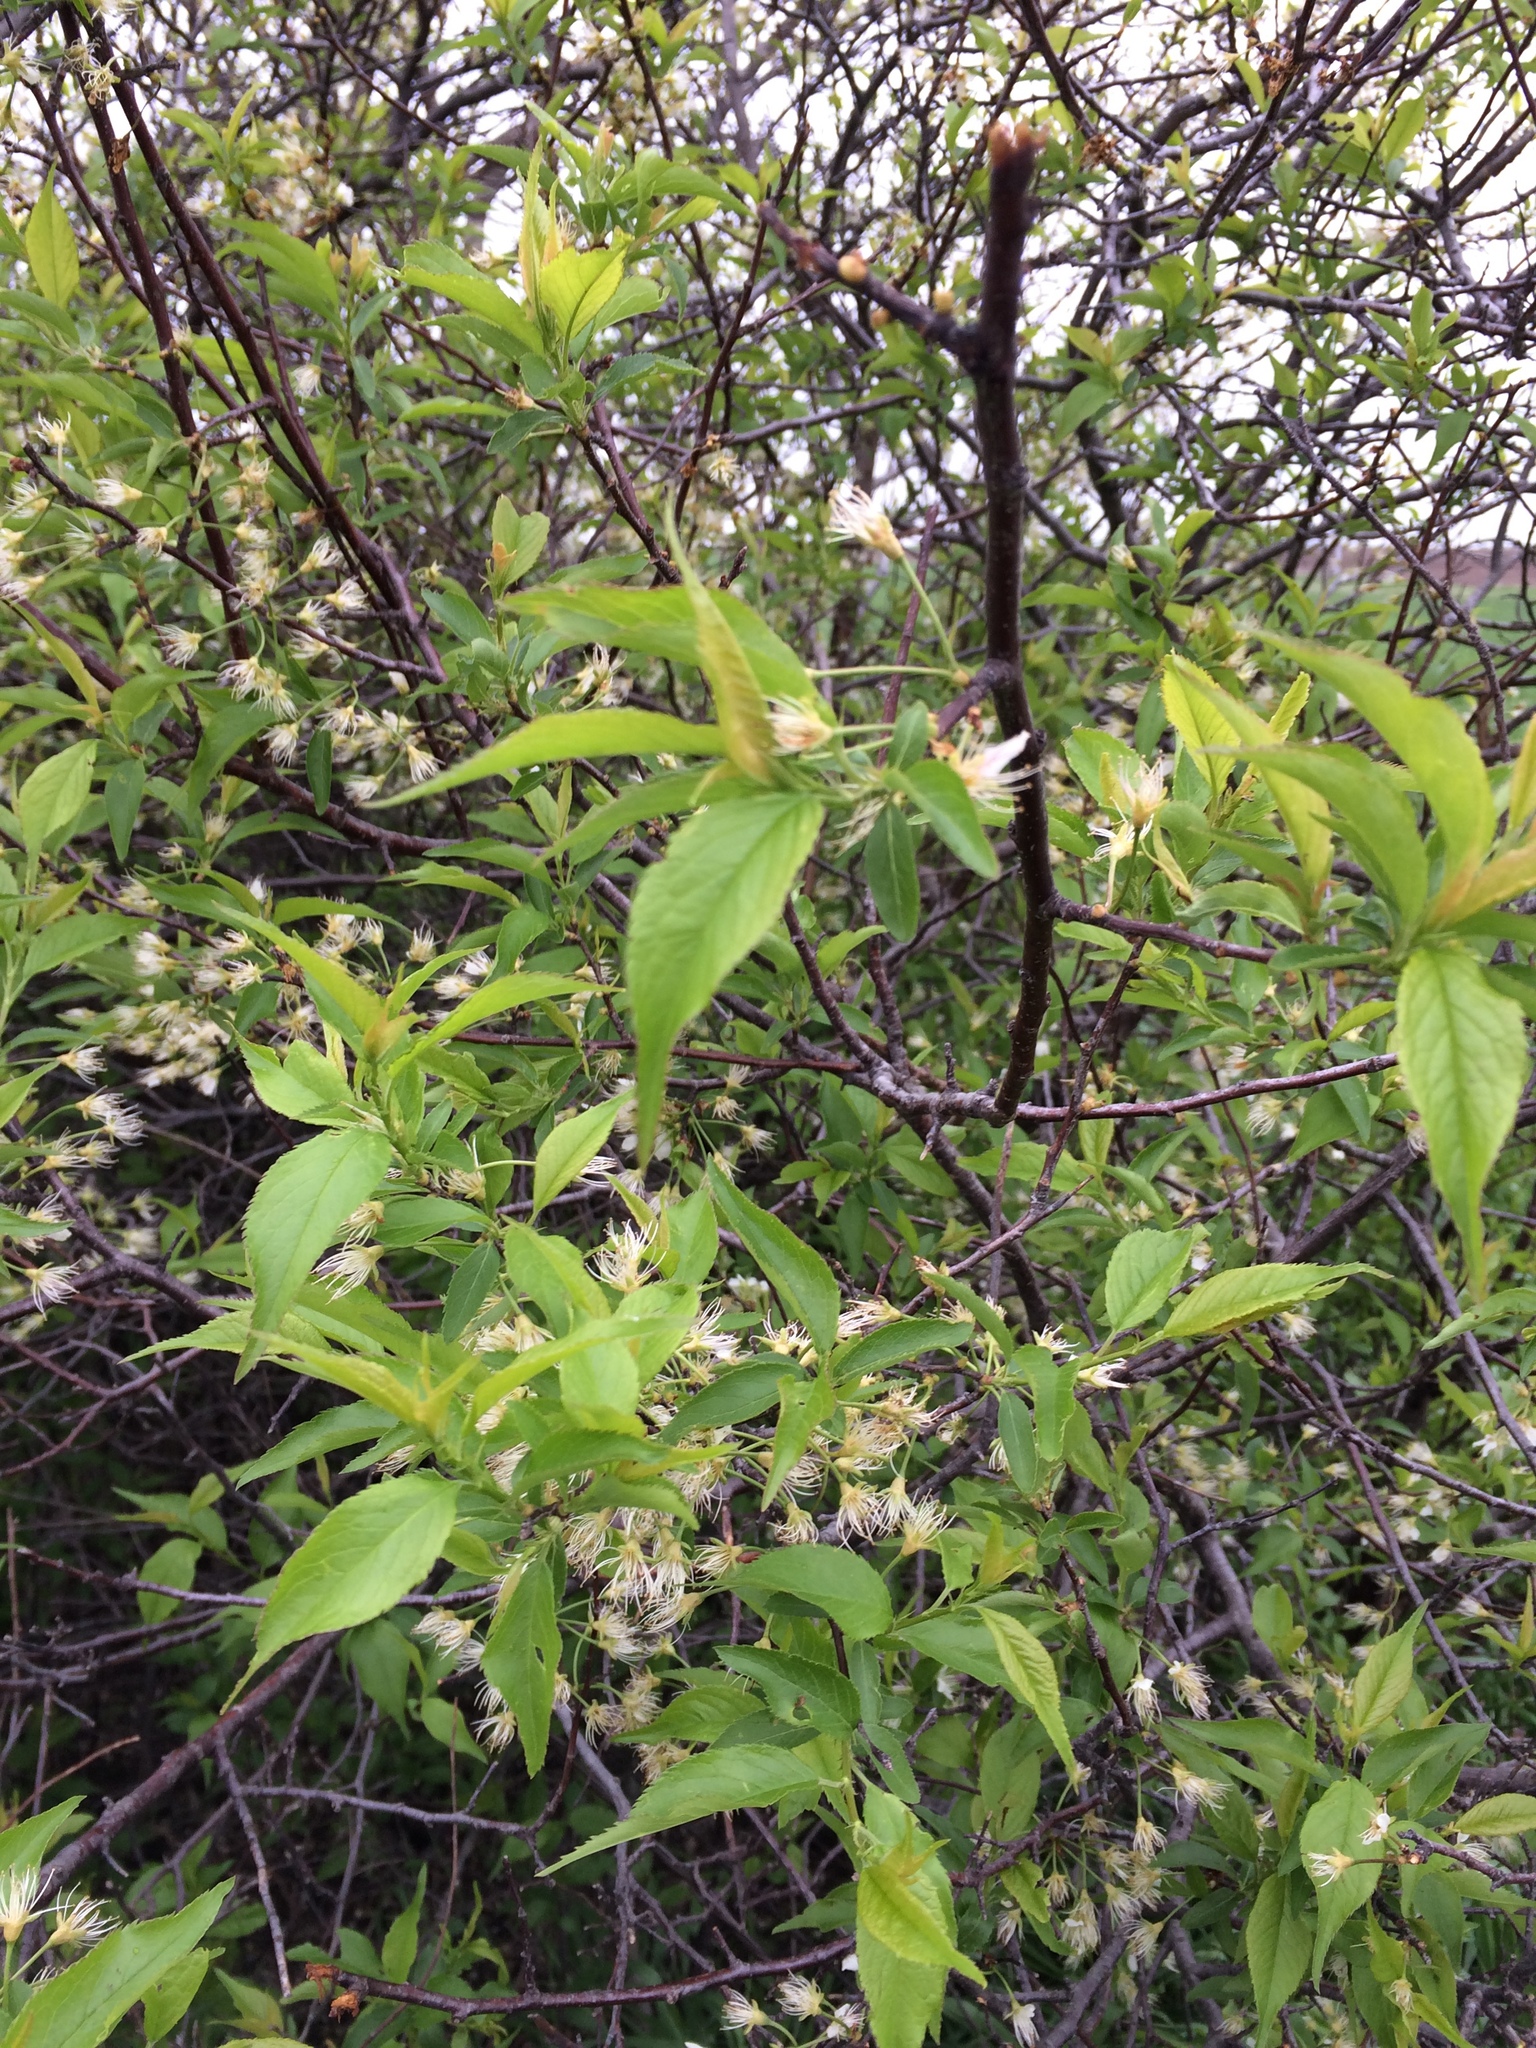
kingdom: Plantae
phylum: Tracheophyta
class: Magnoliopsida
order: Rosales
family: Rosaceae
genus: Prunus
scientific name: Prunus americana
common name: American plum
